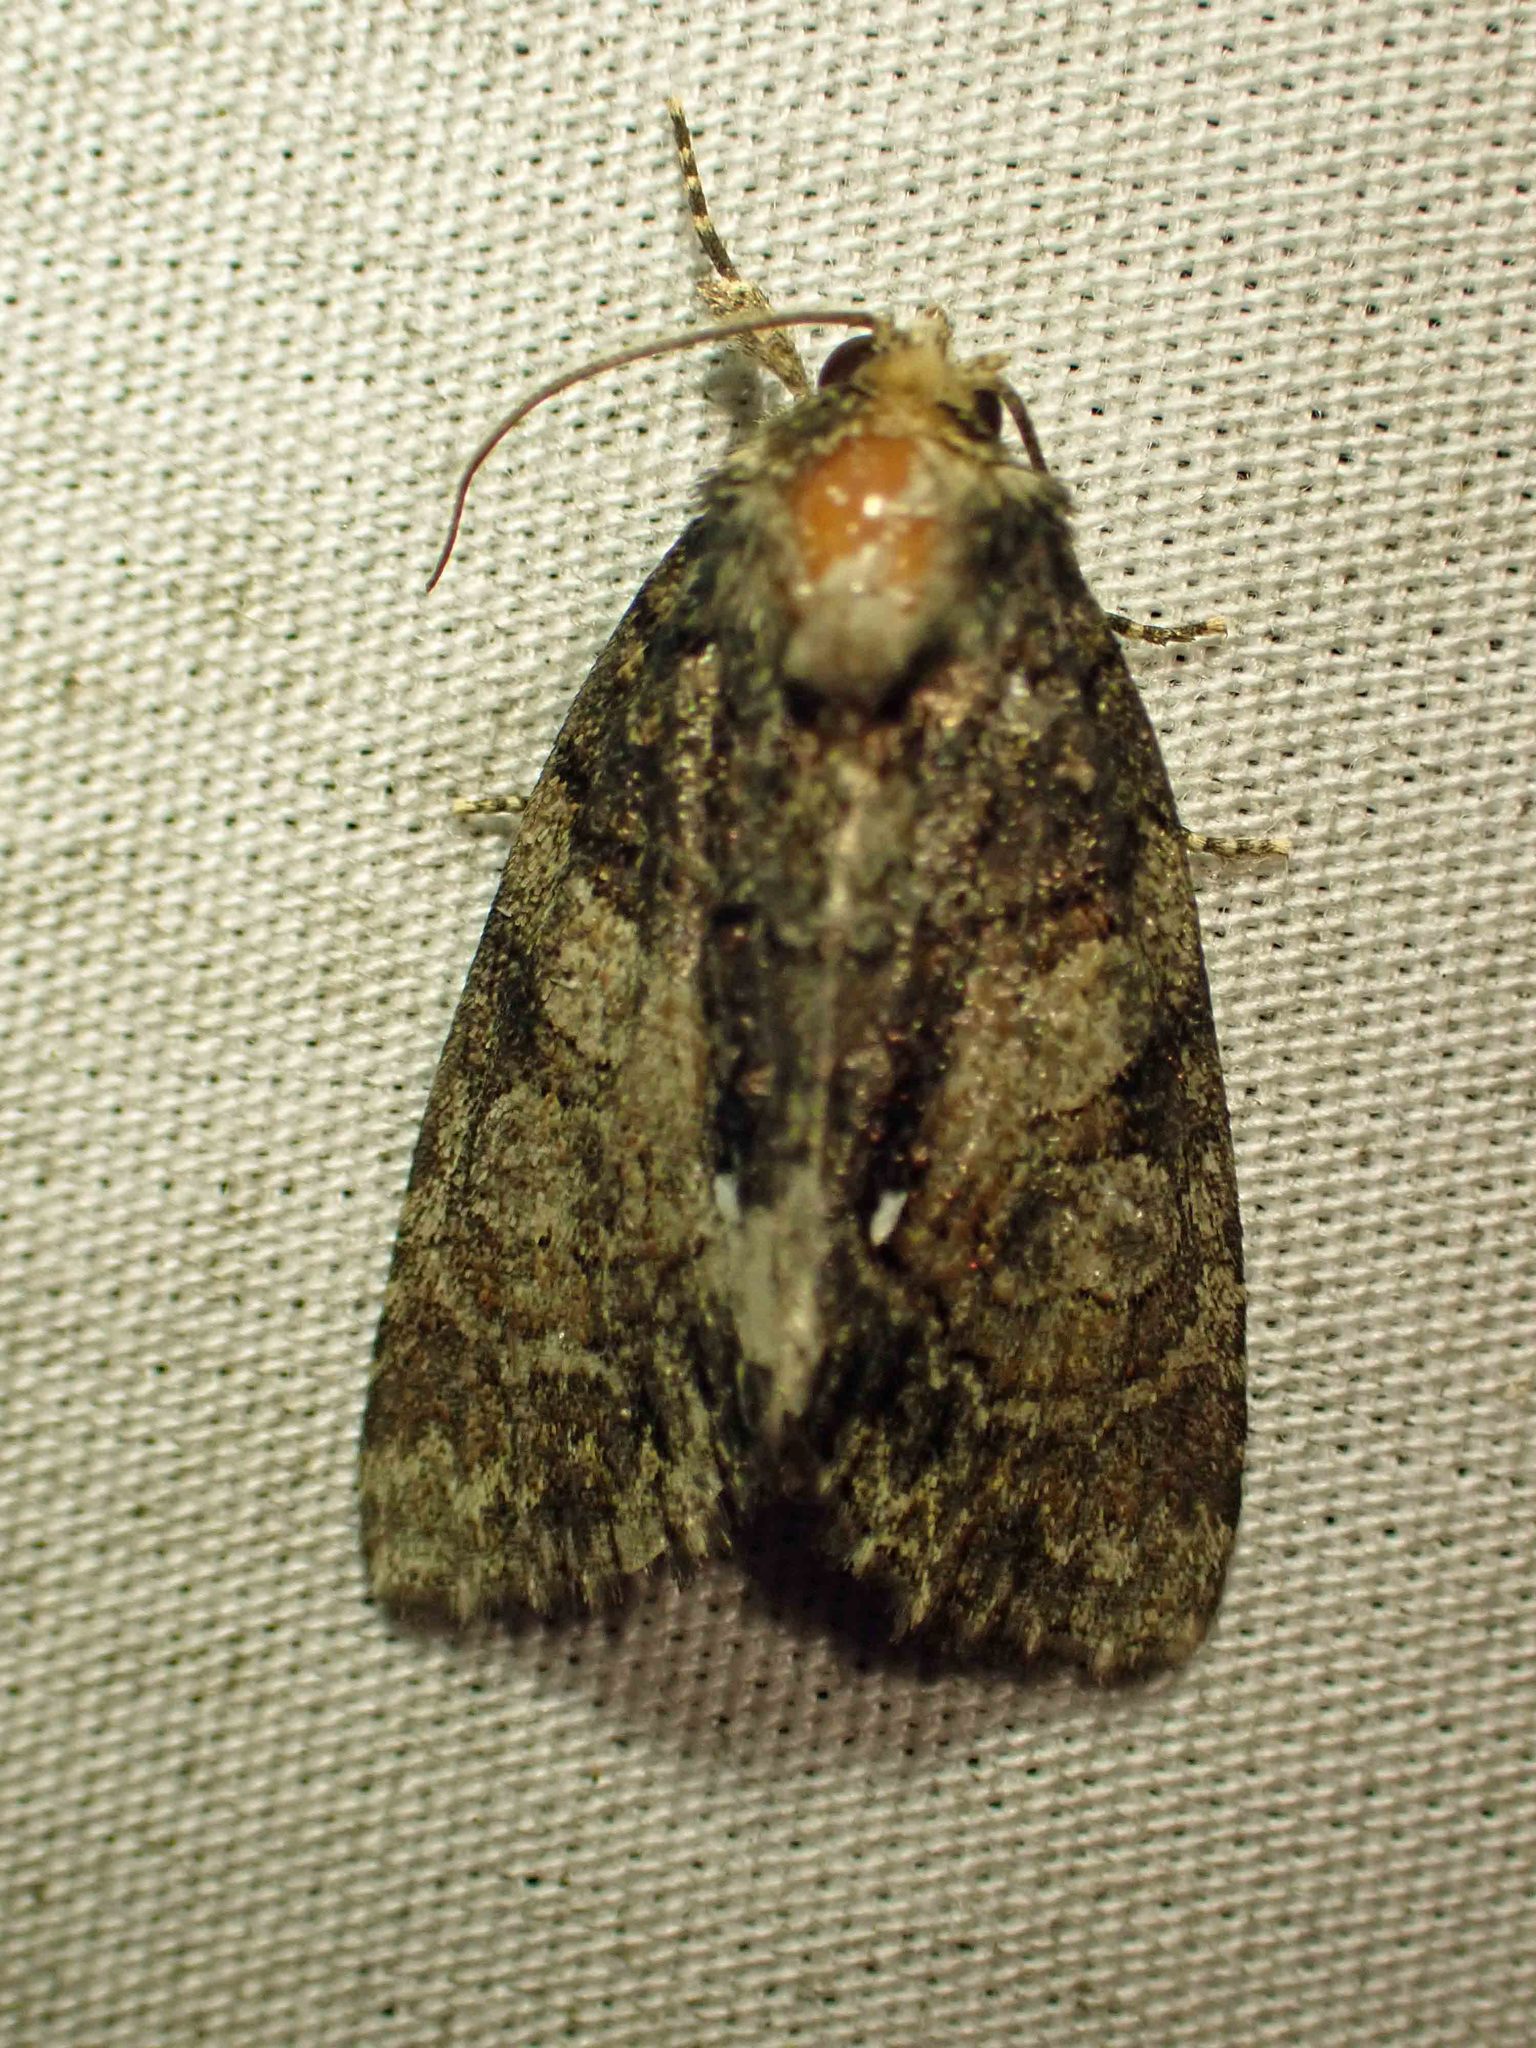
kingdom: Animalia
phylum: Arthropoda
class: Insecta
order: Lepidoptera
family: Noctuidae
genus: Chytonix
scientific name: Chytonix palliatricula
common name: Cloaked marvel
